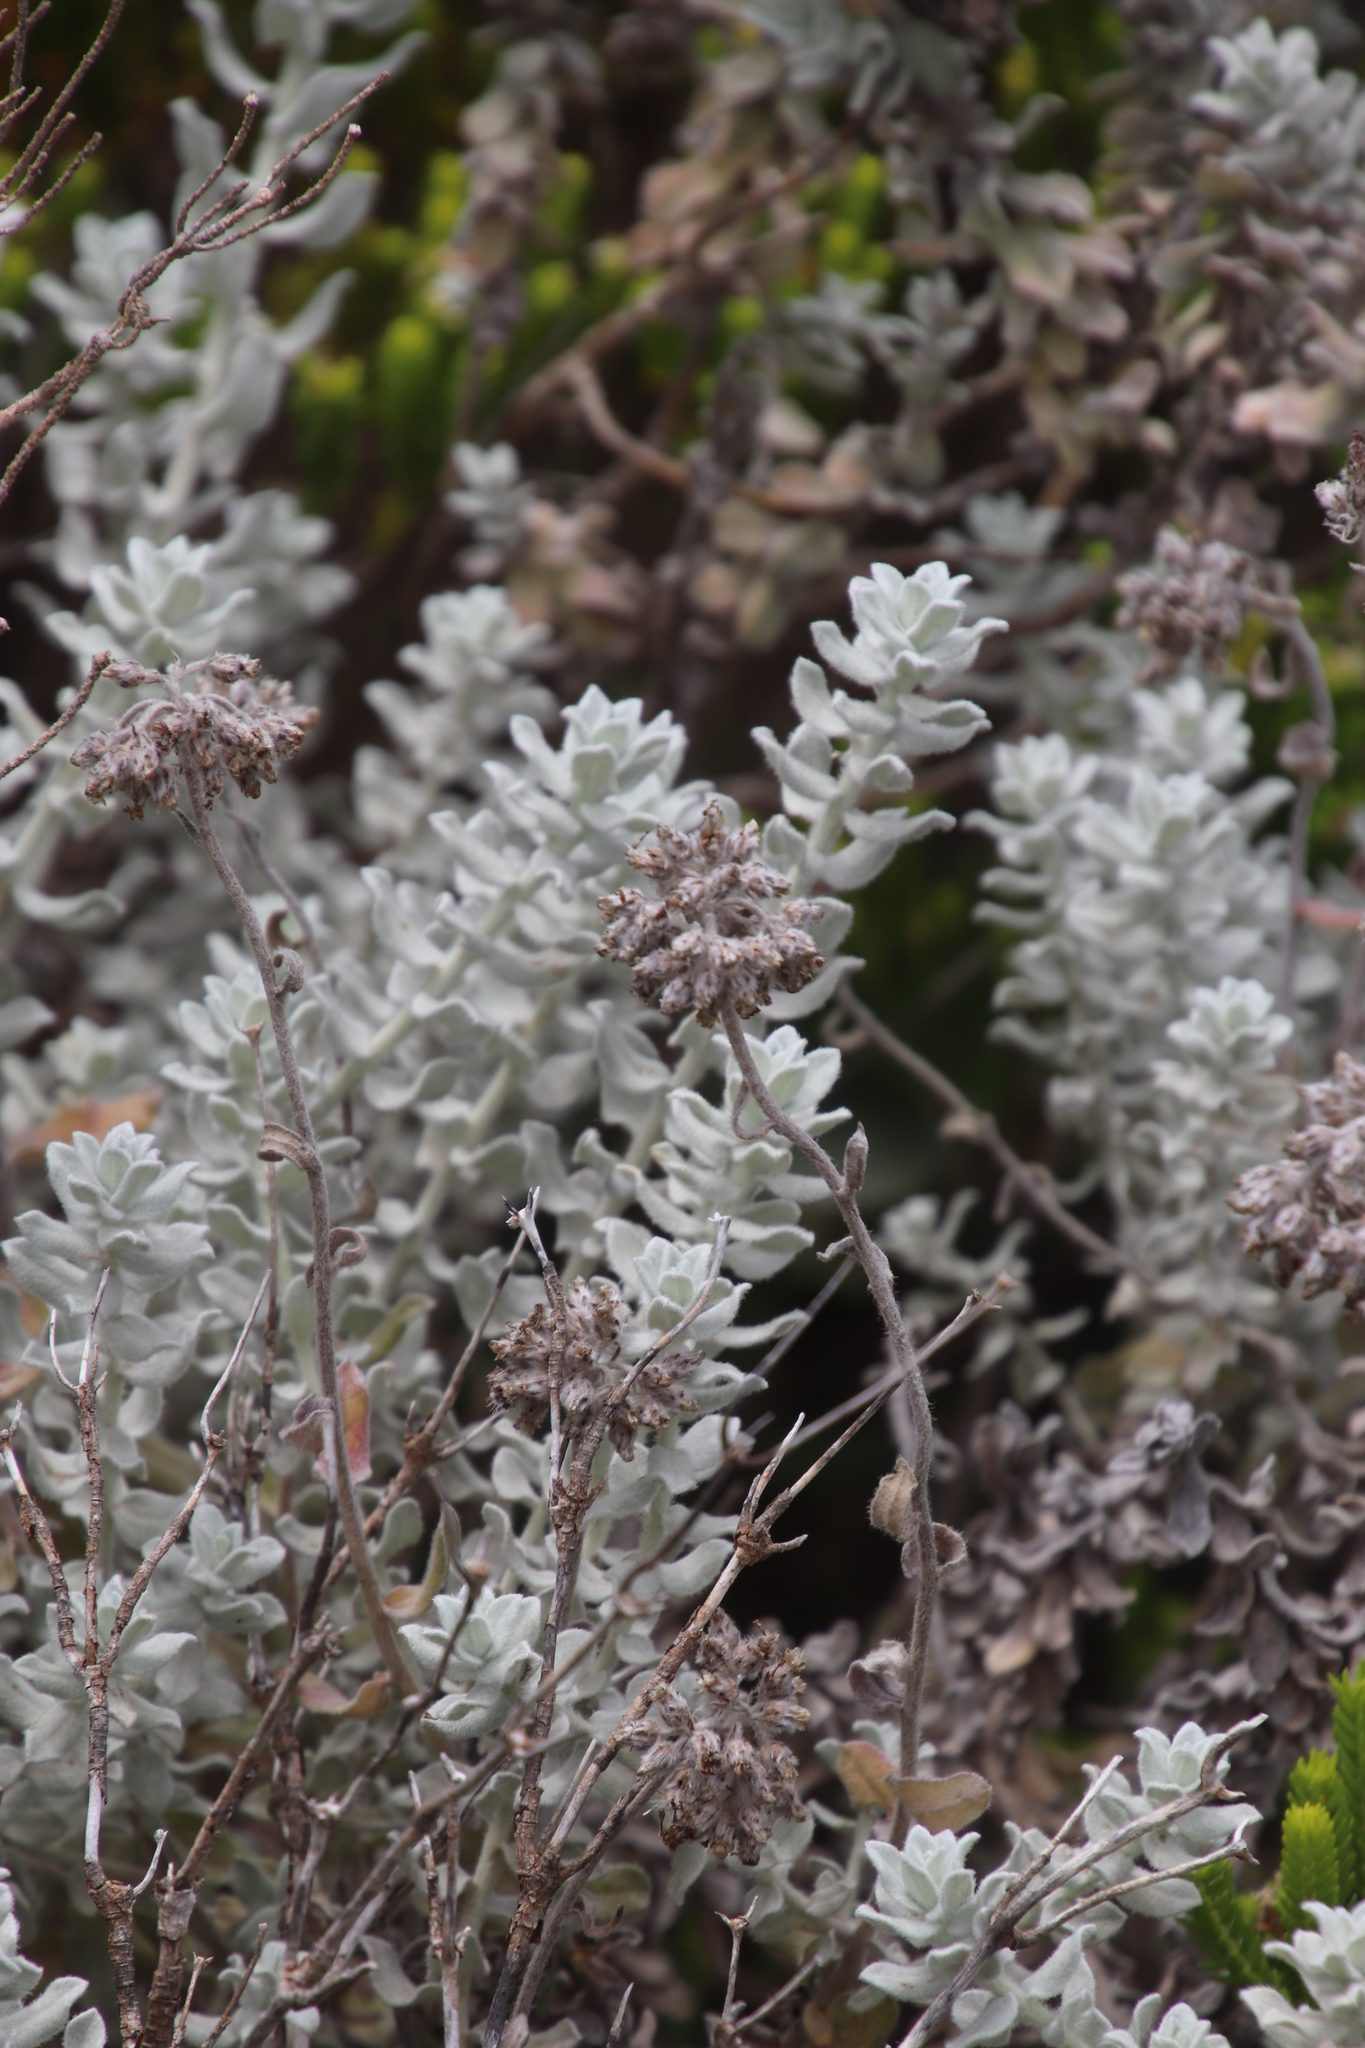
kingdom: Plantae
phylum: Tracheophyta
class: Magnoliopsida
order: Asterales
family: Asteraceae
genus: Helichrysum
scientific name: Helichrysum dasyanthum
